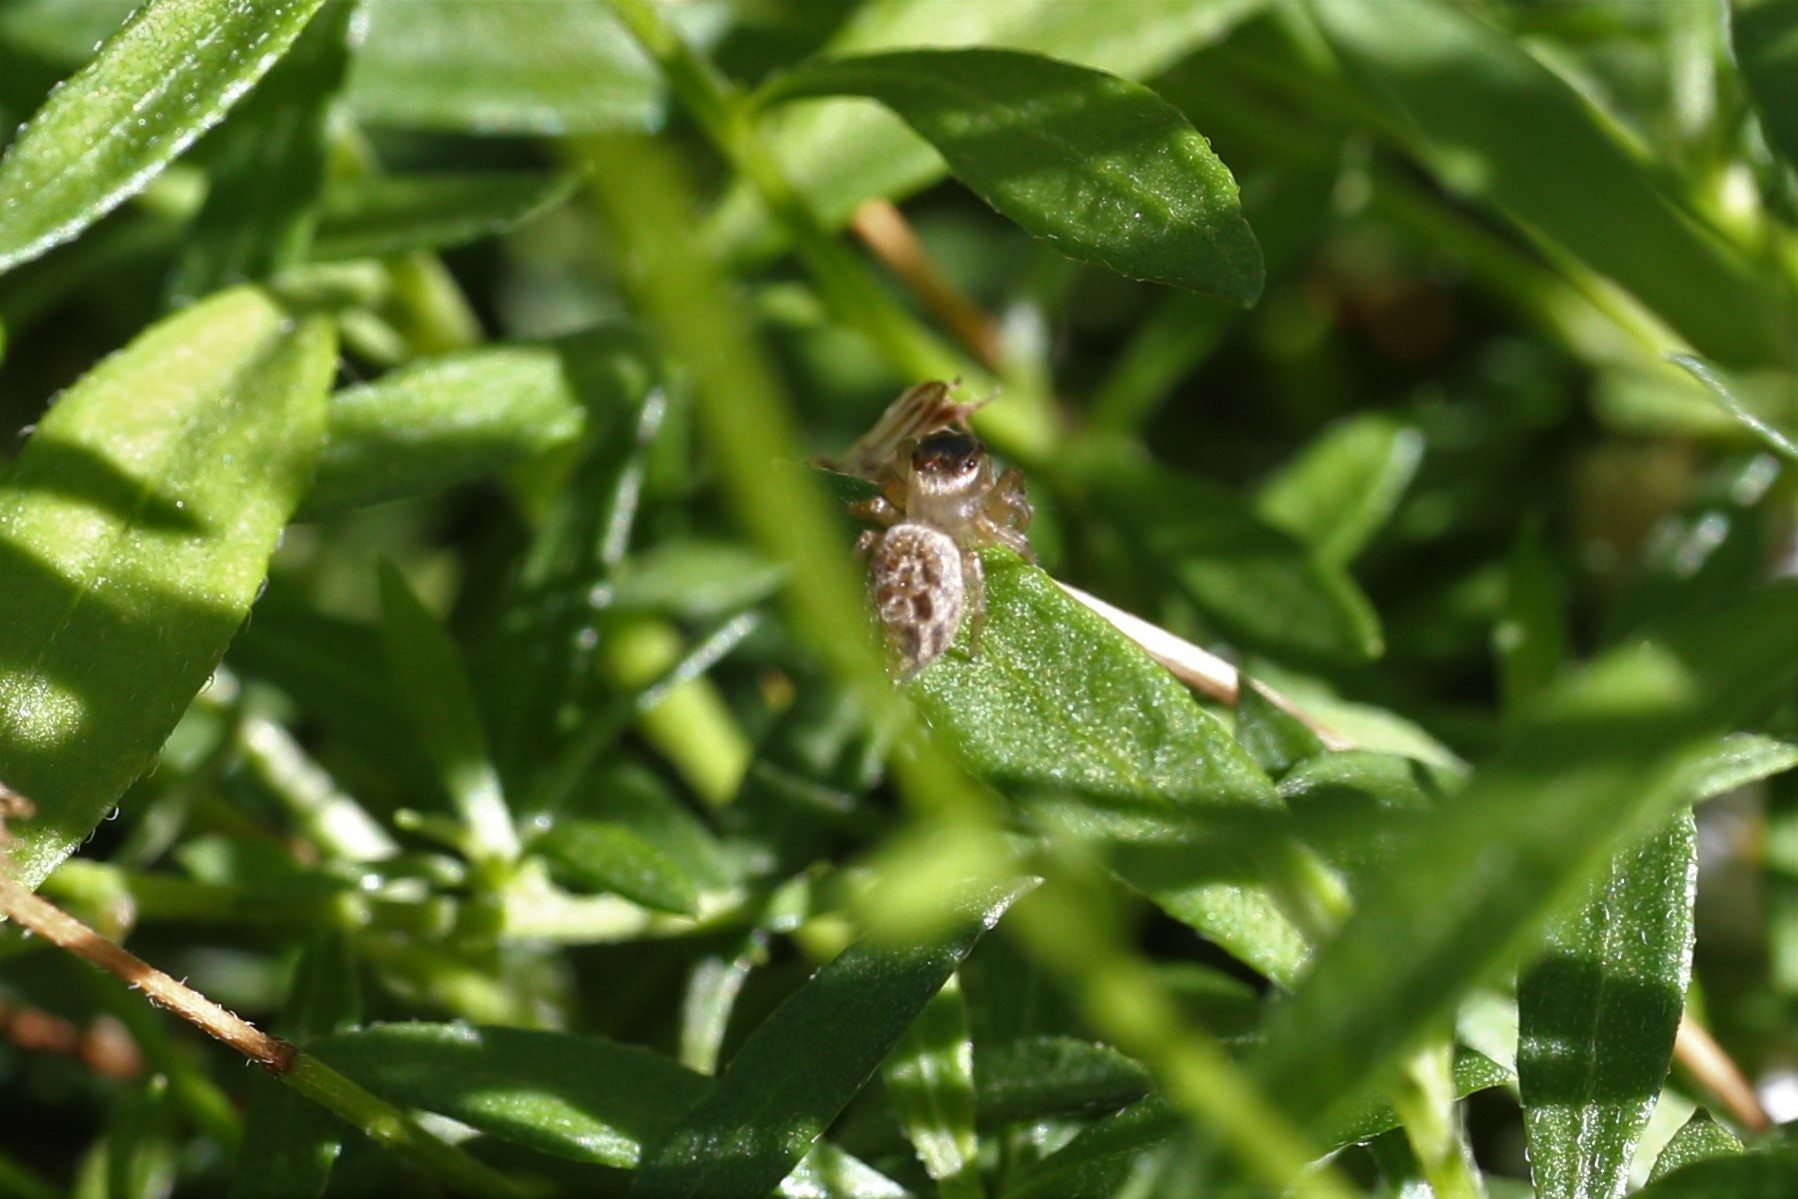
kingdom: Animalia
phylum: Arthropoda
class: Arachnida
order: Araneae
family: Salticidae
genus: Maratus
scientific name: Maratus griseus
